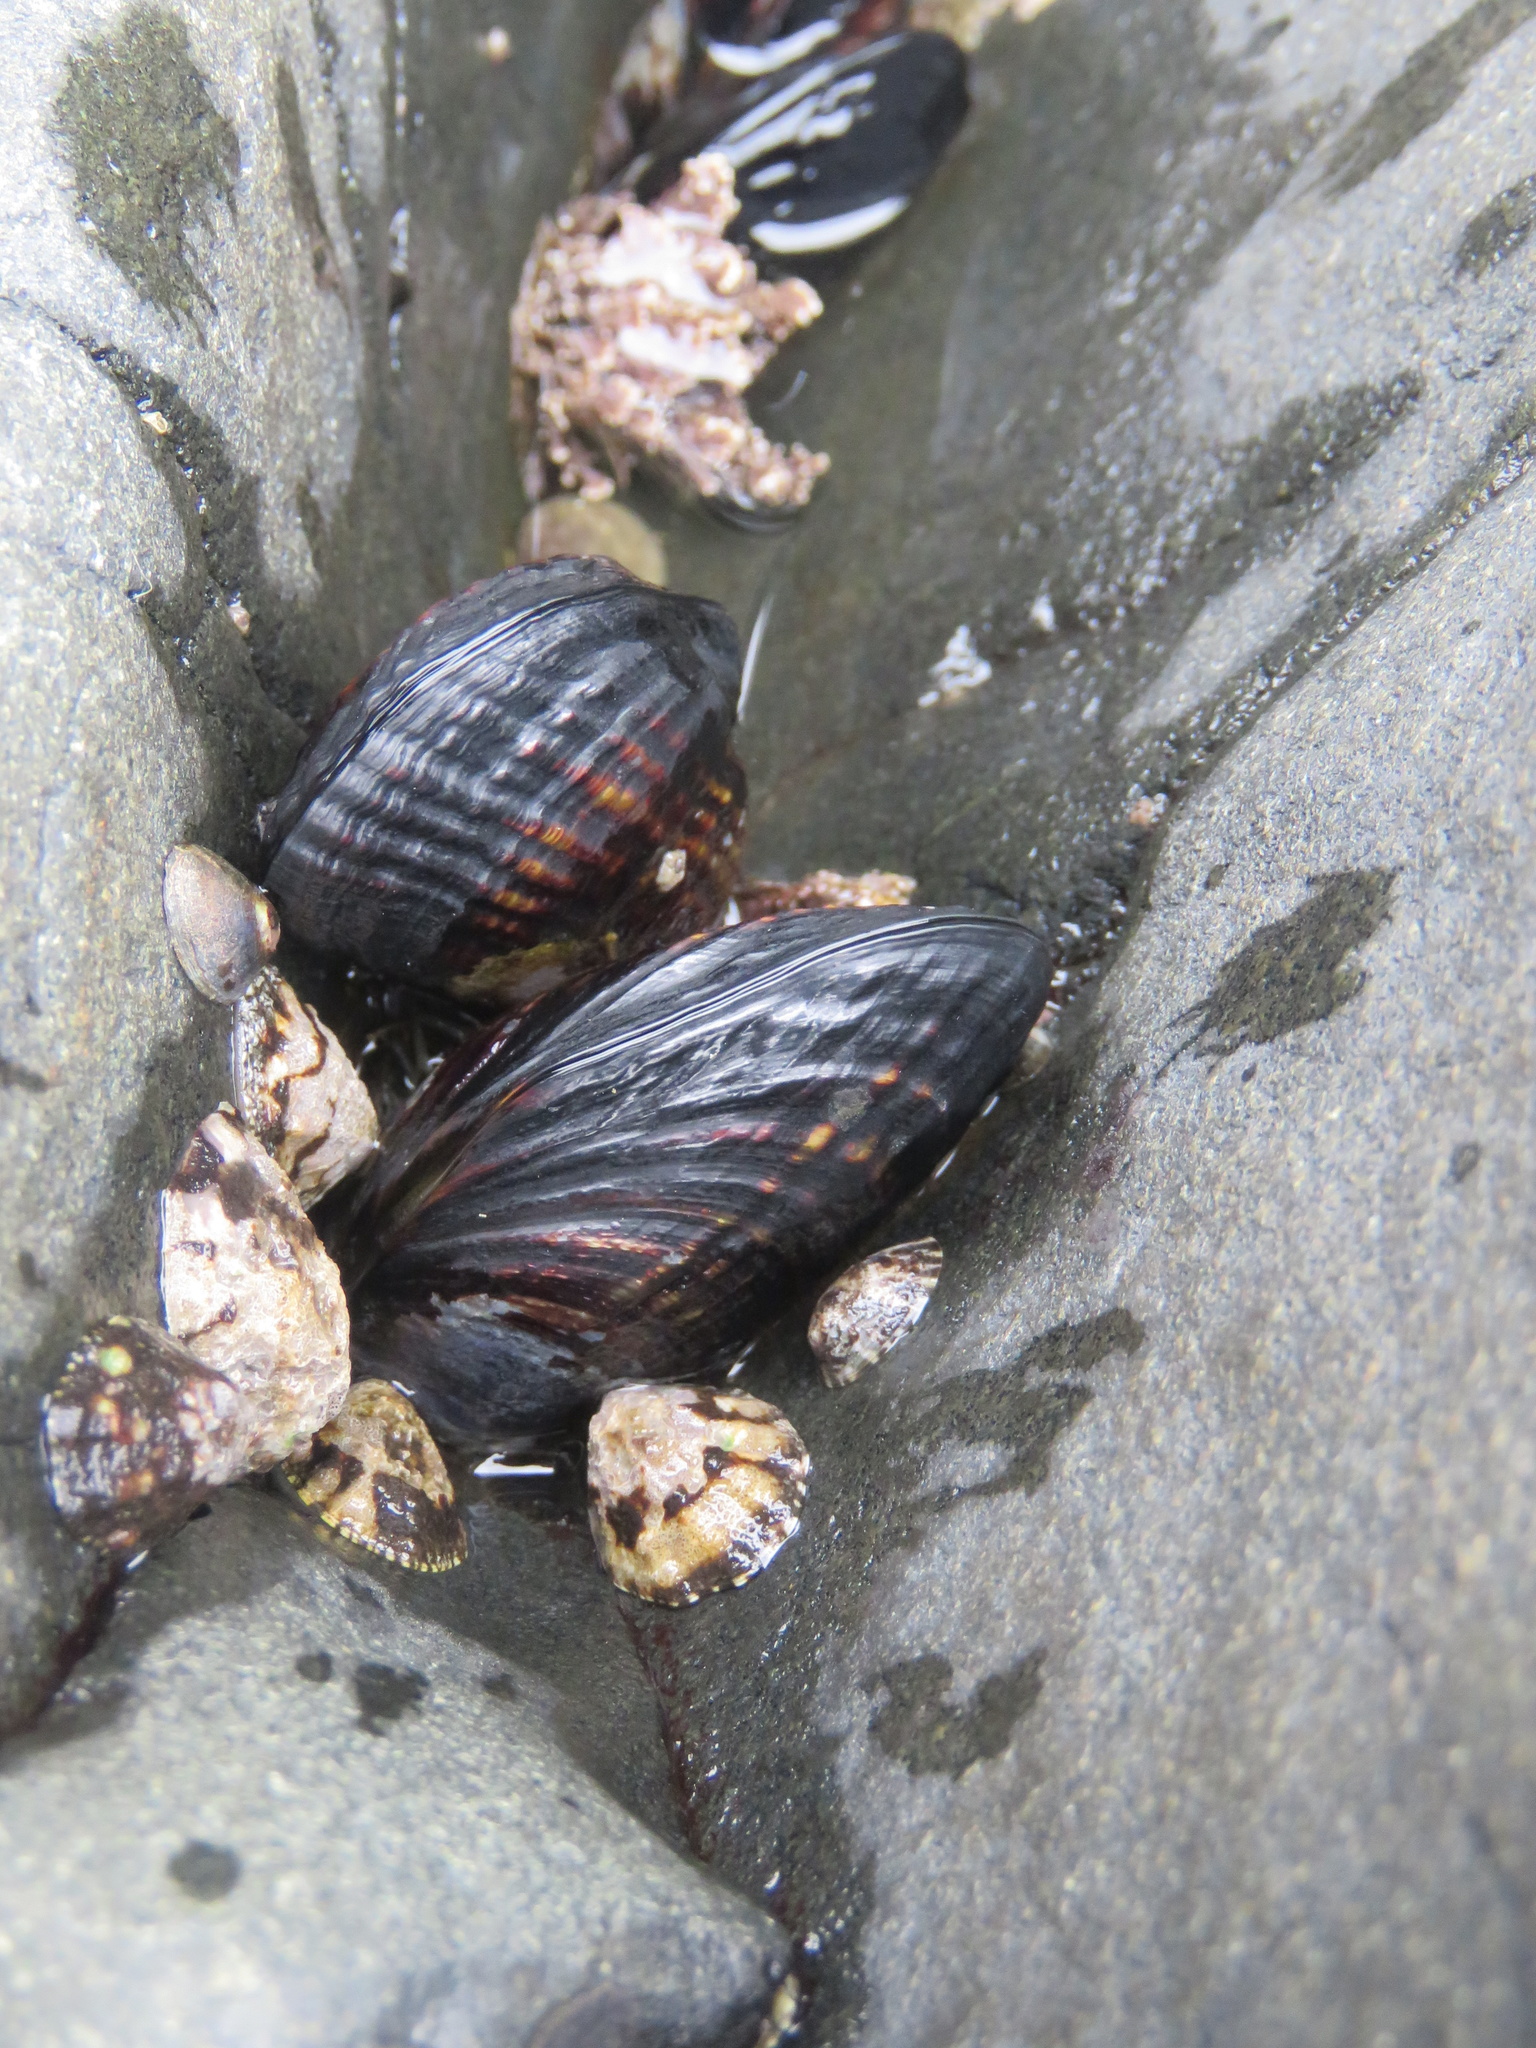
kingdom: Animalia
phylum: Mollusca
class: Bivalvia
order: Mytilida
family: Mytilidae
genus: Mytilus
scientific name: Mytilus californianus
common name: California mussel
